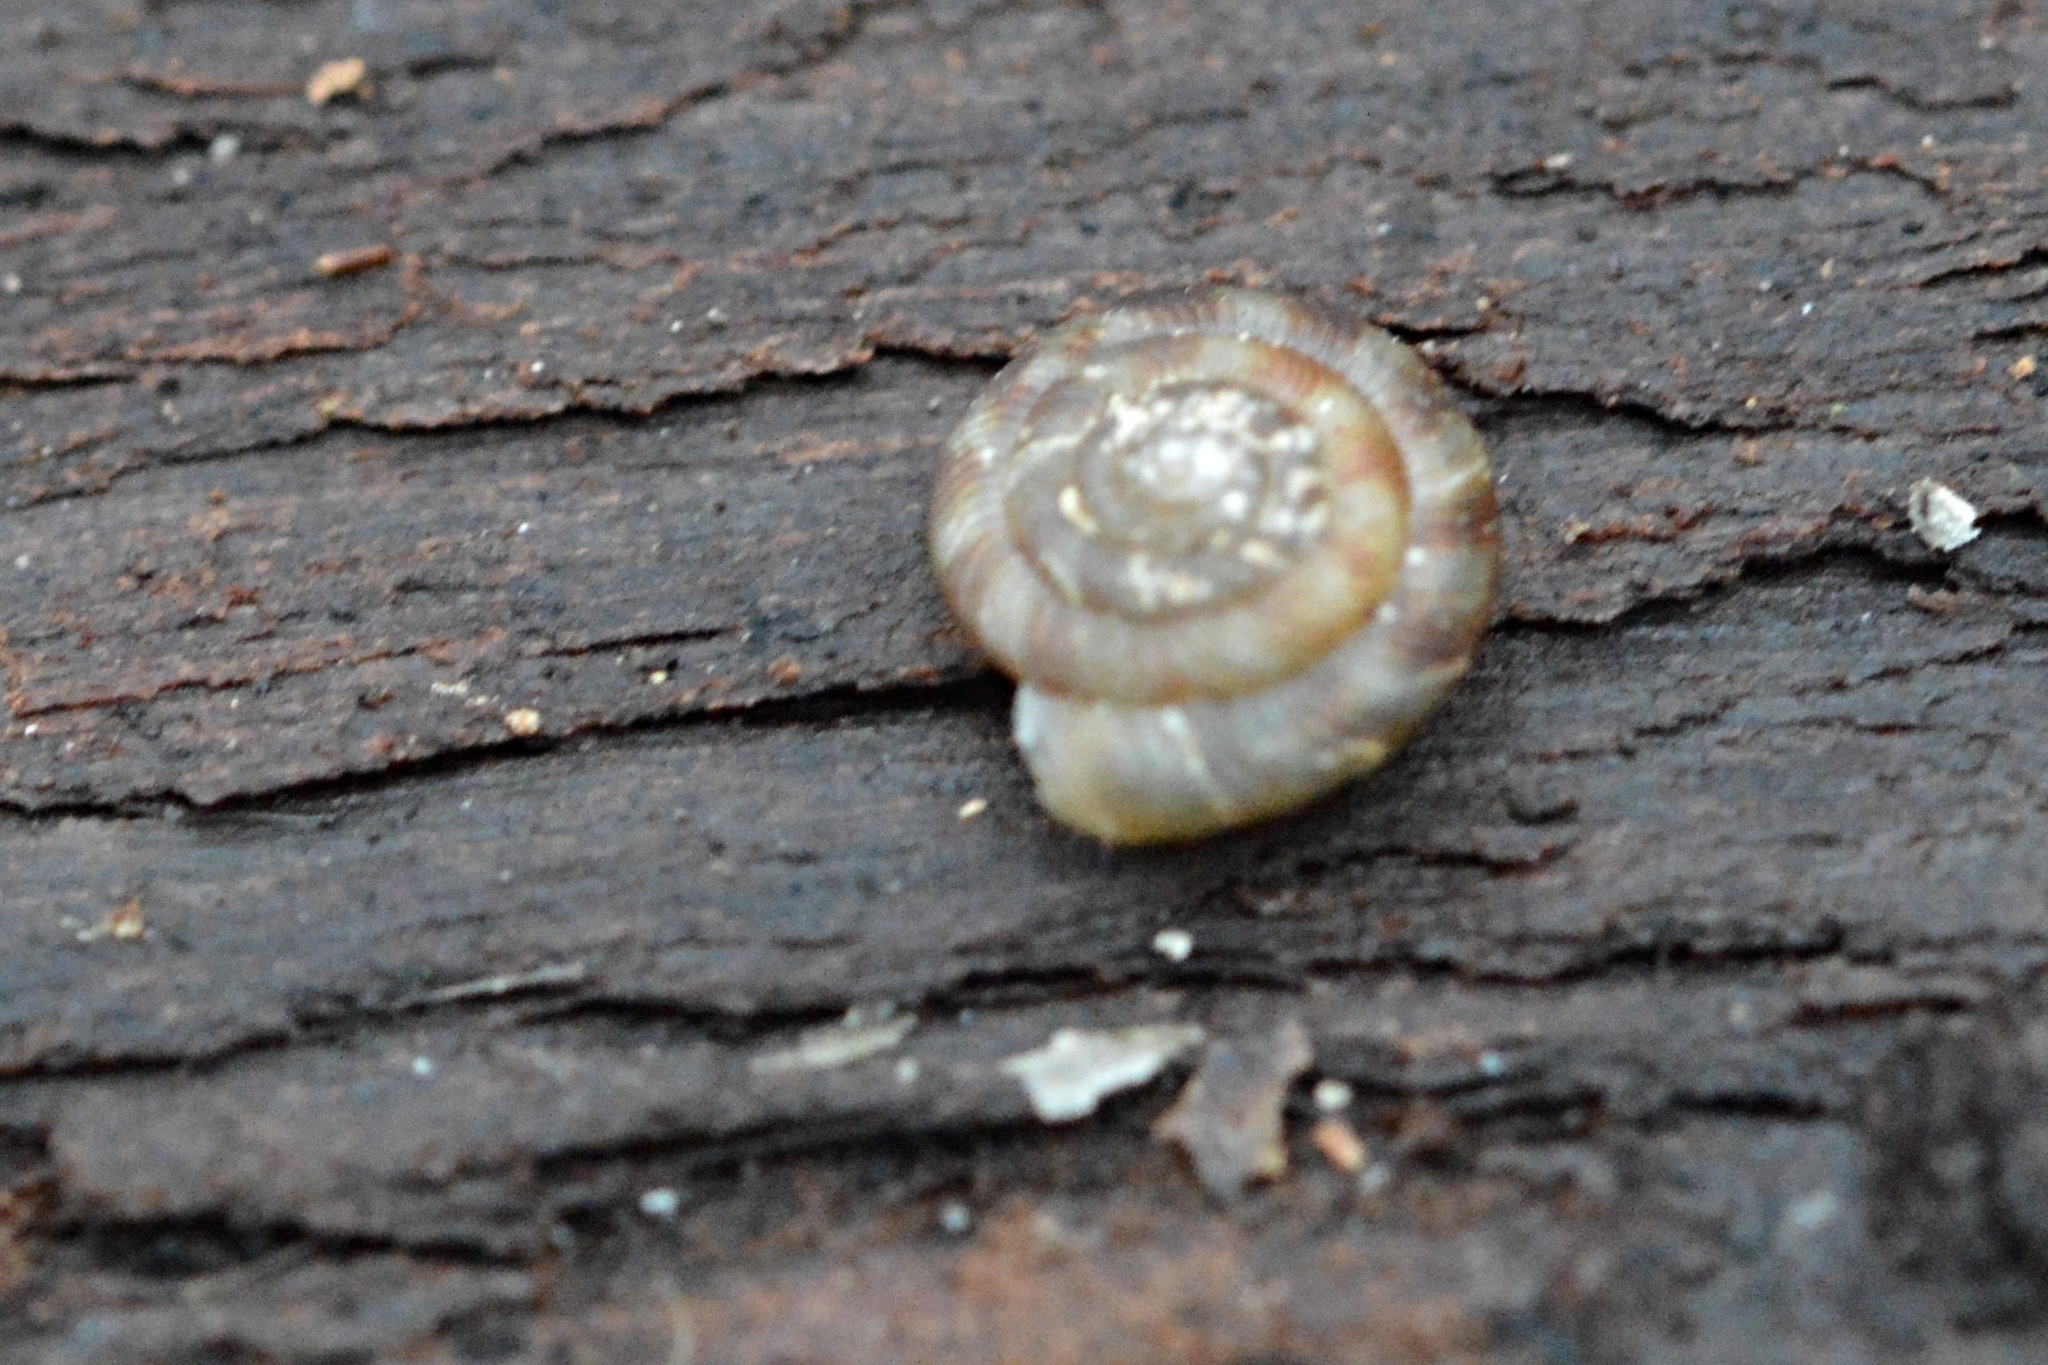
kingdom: Animalia
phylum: Mollusca
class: Gastropoda
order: Stylommatophora
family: Discidae
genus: Discus
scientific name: Discus rotundatus
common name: Rounded snail
